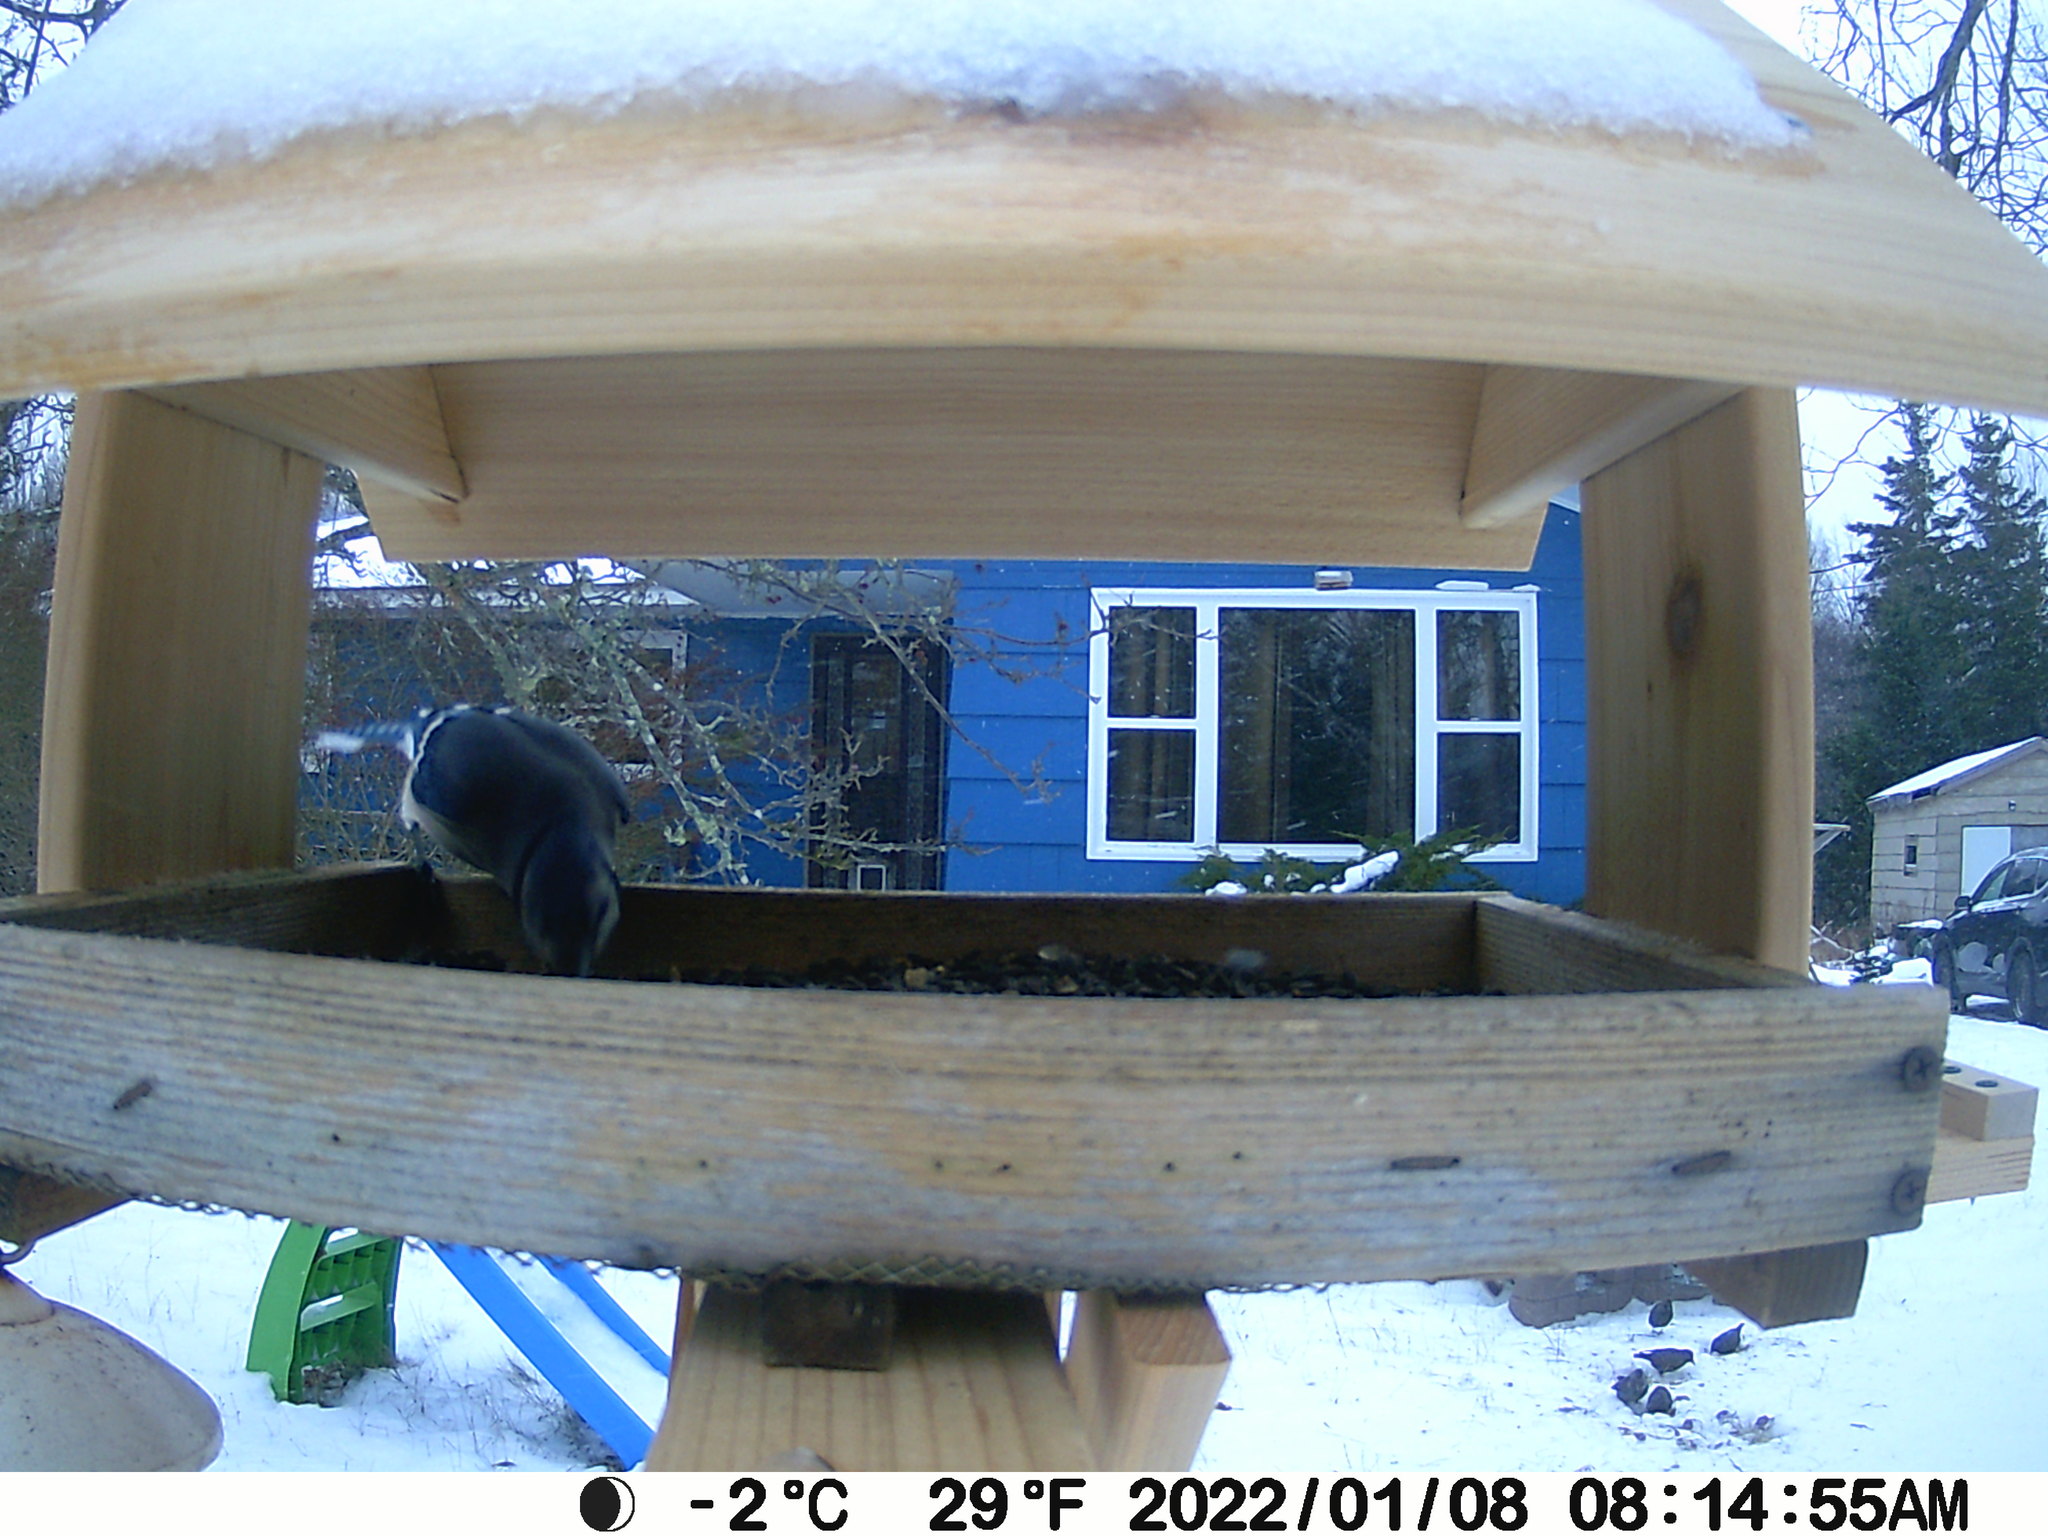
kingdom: Animalia
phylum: Chordata
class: Aves
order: Passeriformes
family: Sturnidae
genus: Sturnus
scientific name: Sturnus vulgaris
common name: Common starling
